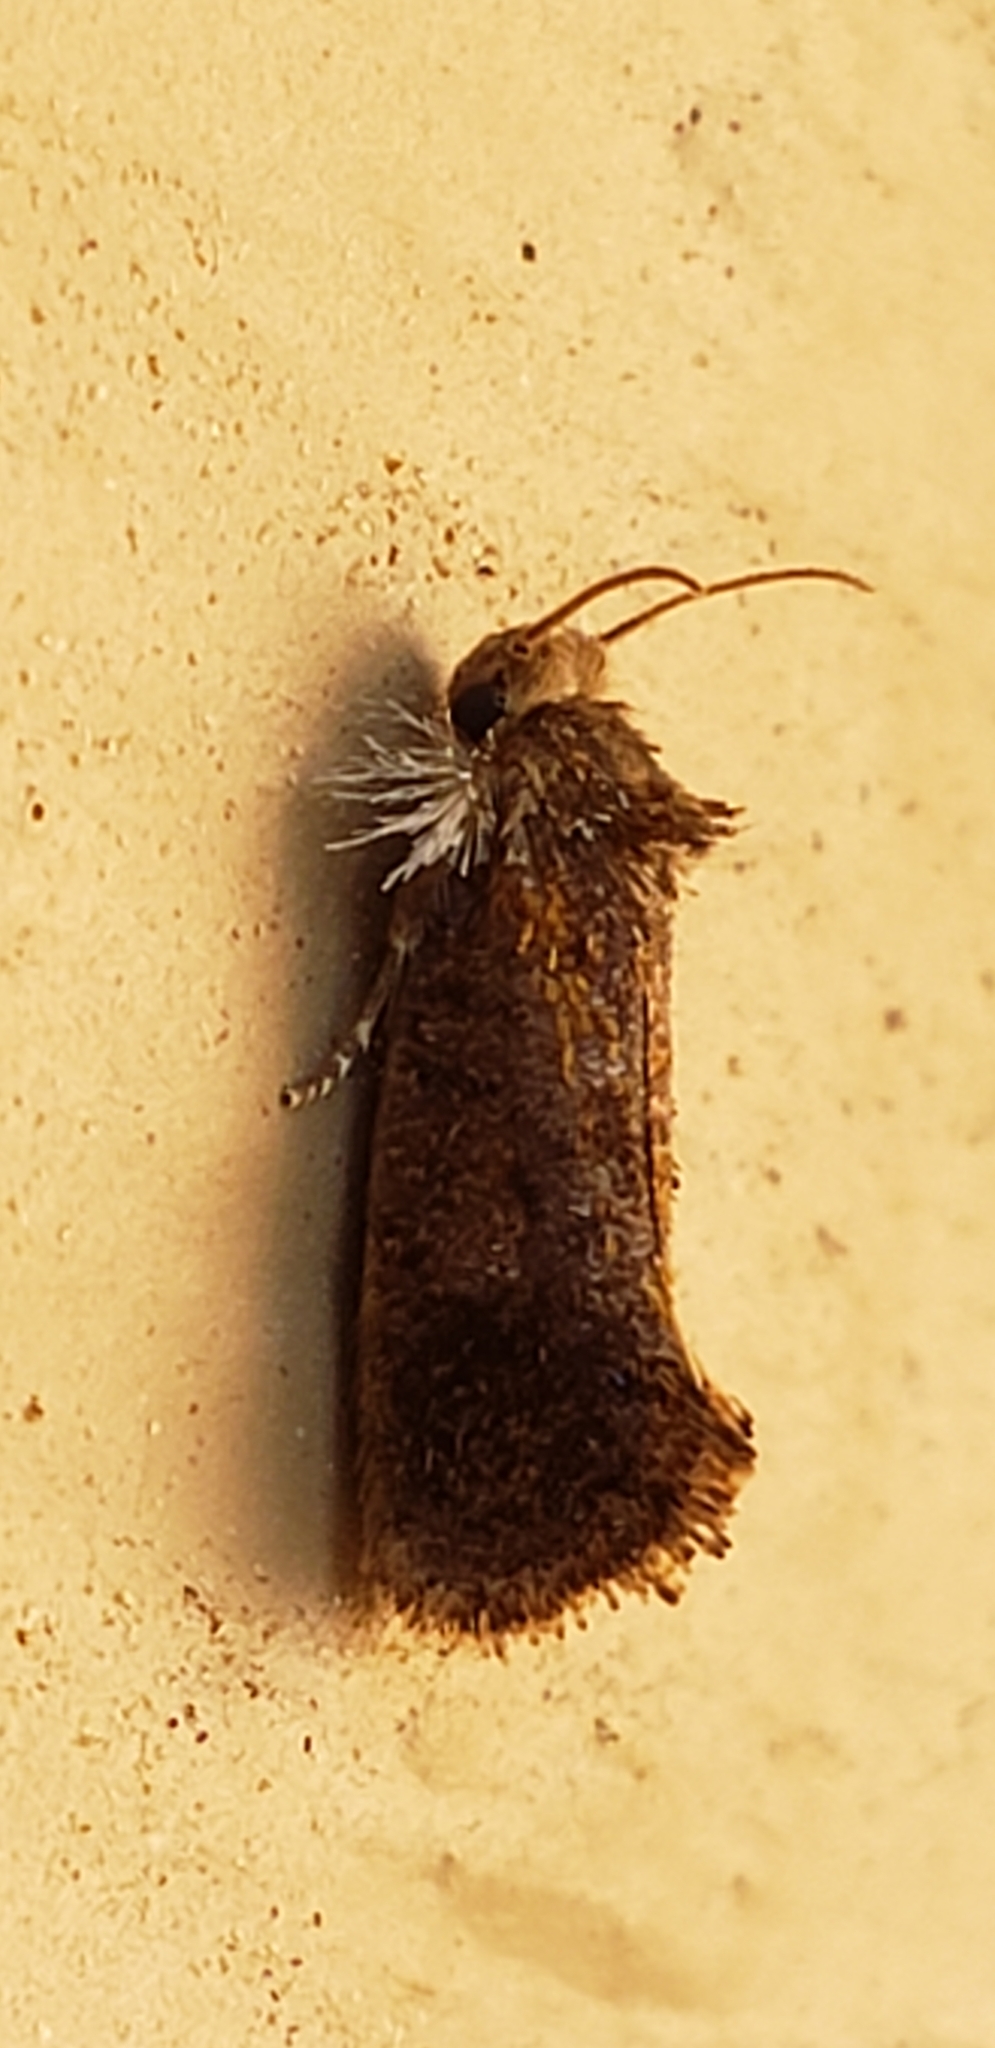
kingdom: Animalia
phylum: Arthropoda
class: Insecta
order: Lepidoptera
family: Tineidae
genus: Acrolophus
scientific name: Acrolophus panamae
